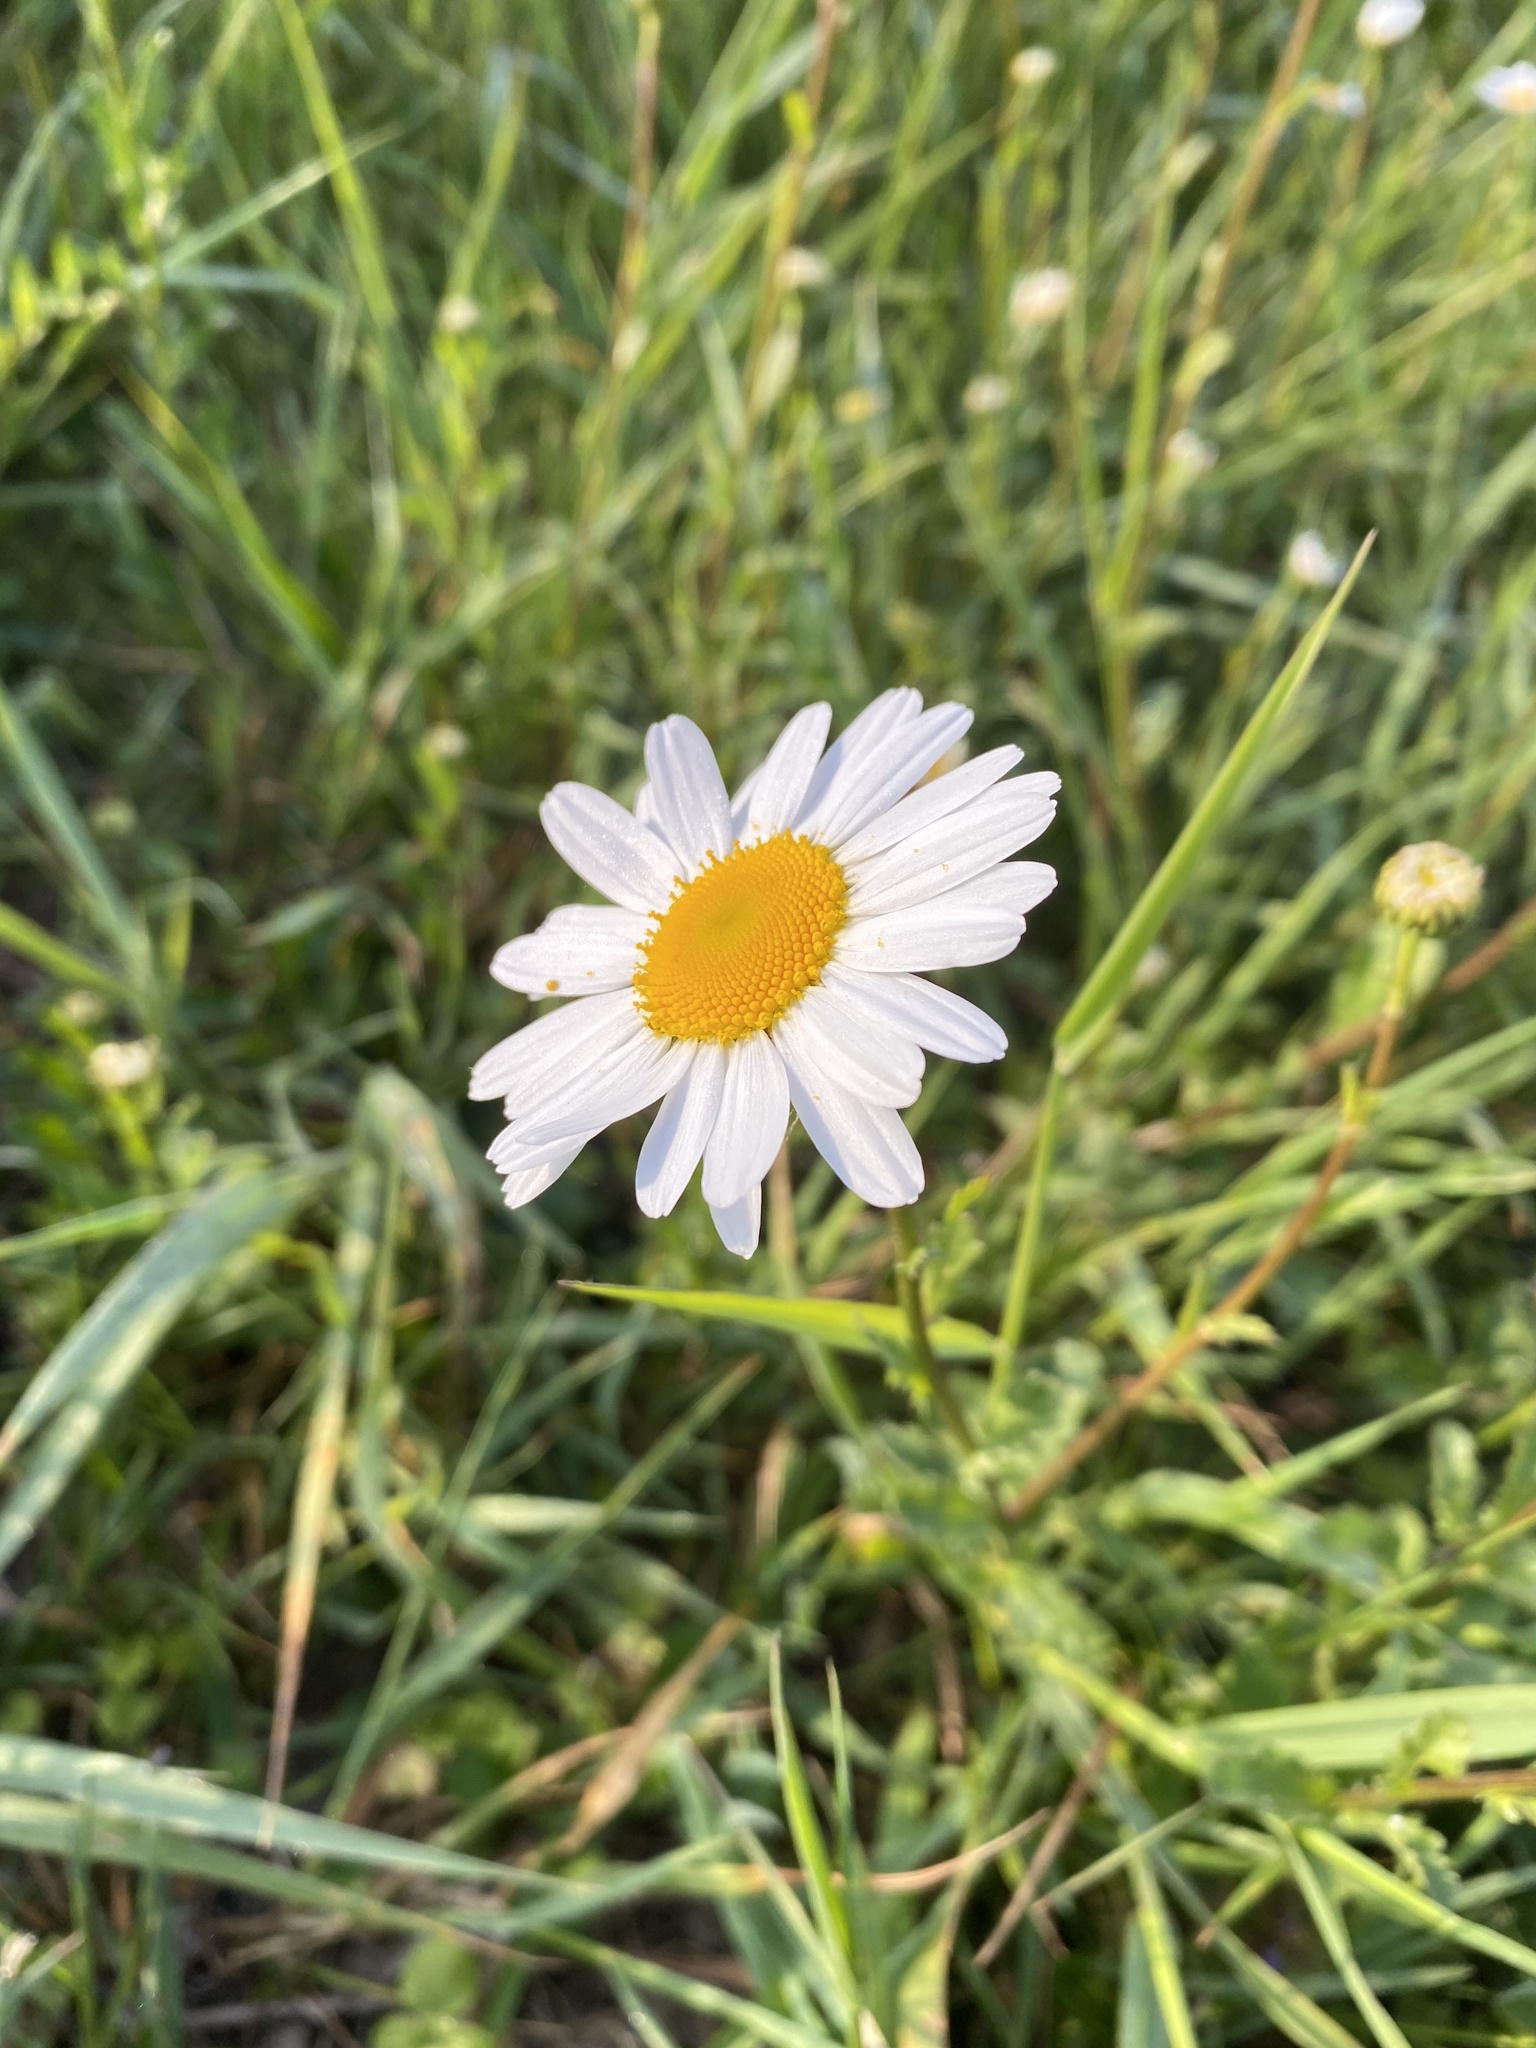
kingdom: Plantae
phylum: Tracheophyta
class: Magnoliopsida
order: Asterales
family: Asteraceae
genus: Leucanthemum
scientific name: Leucanthemum vulgare
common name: Oxeye daisy
